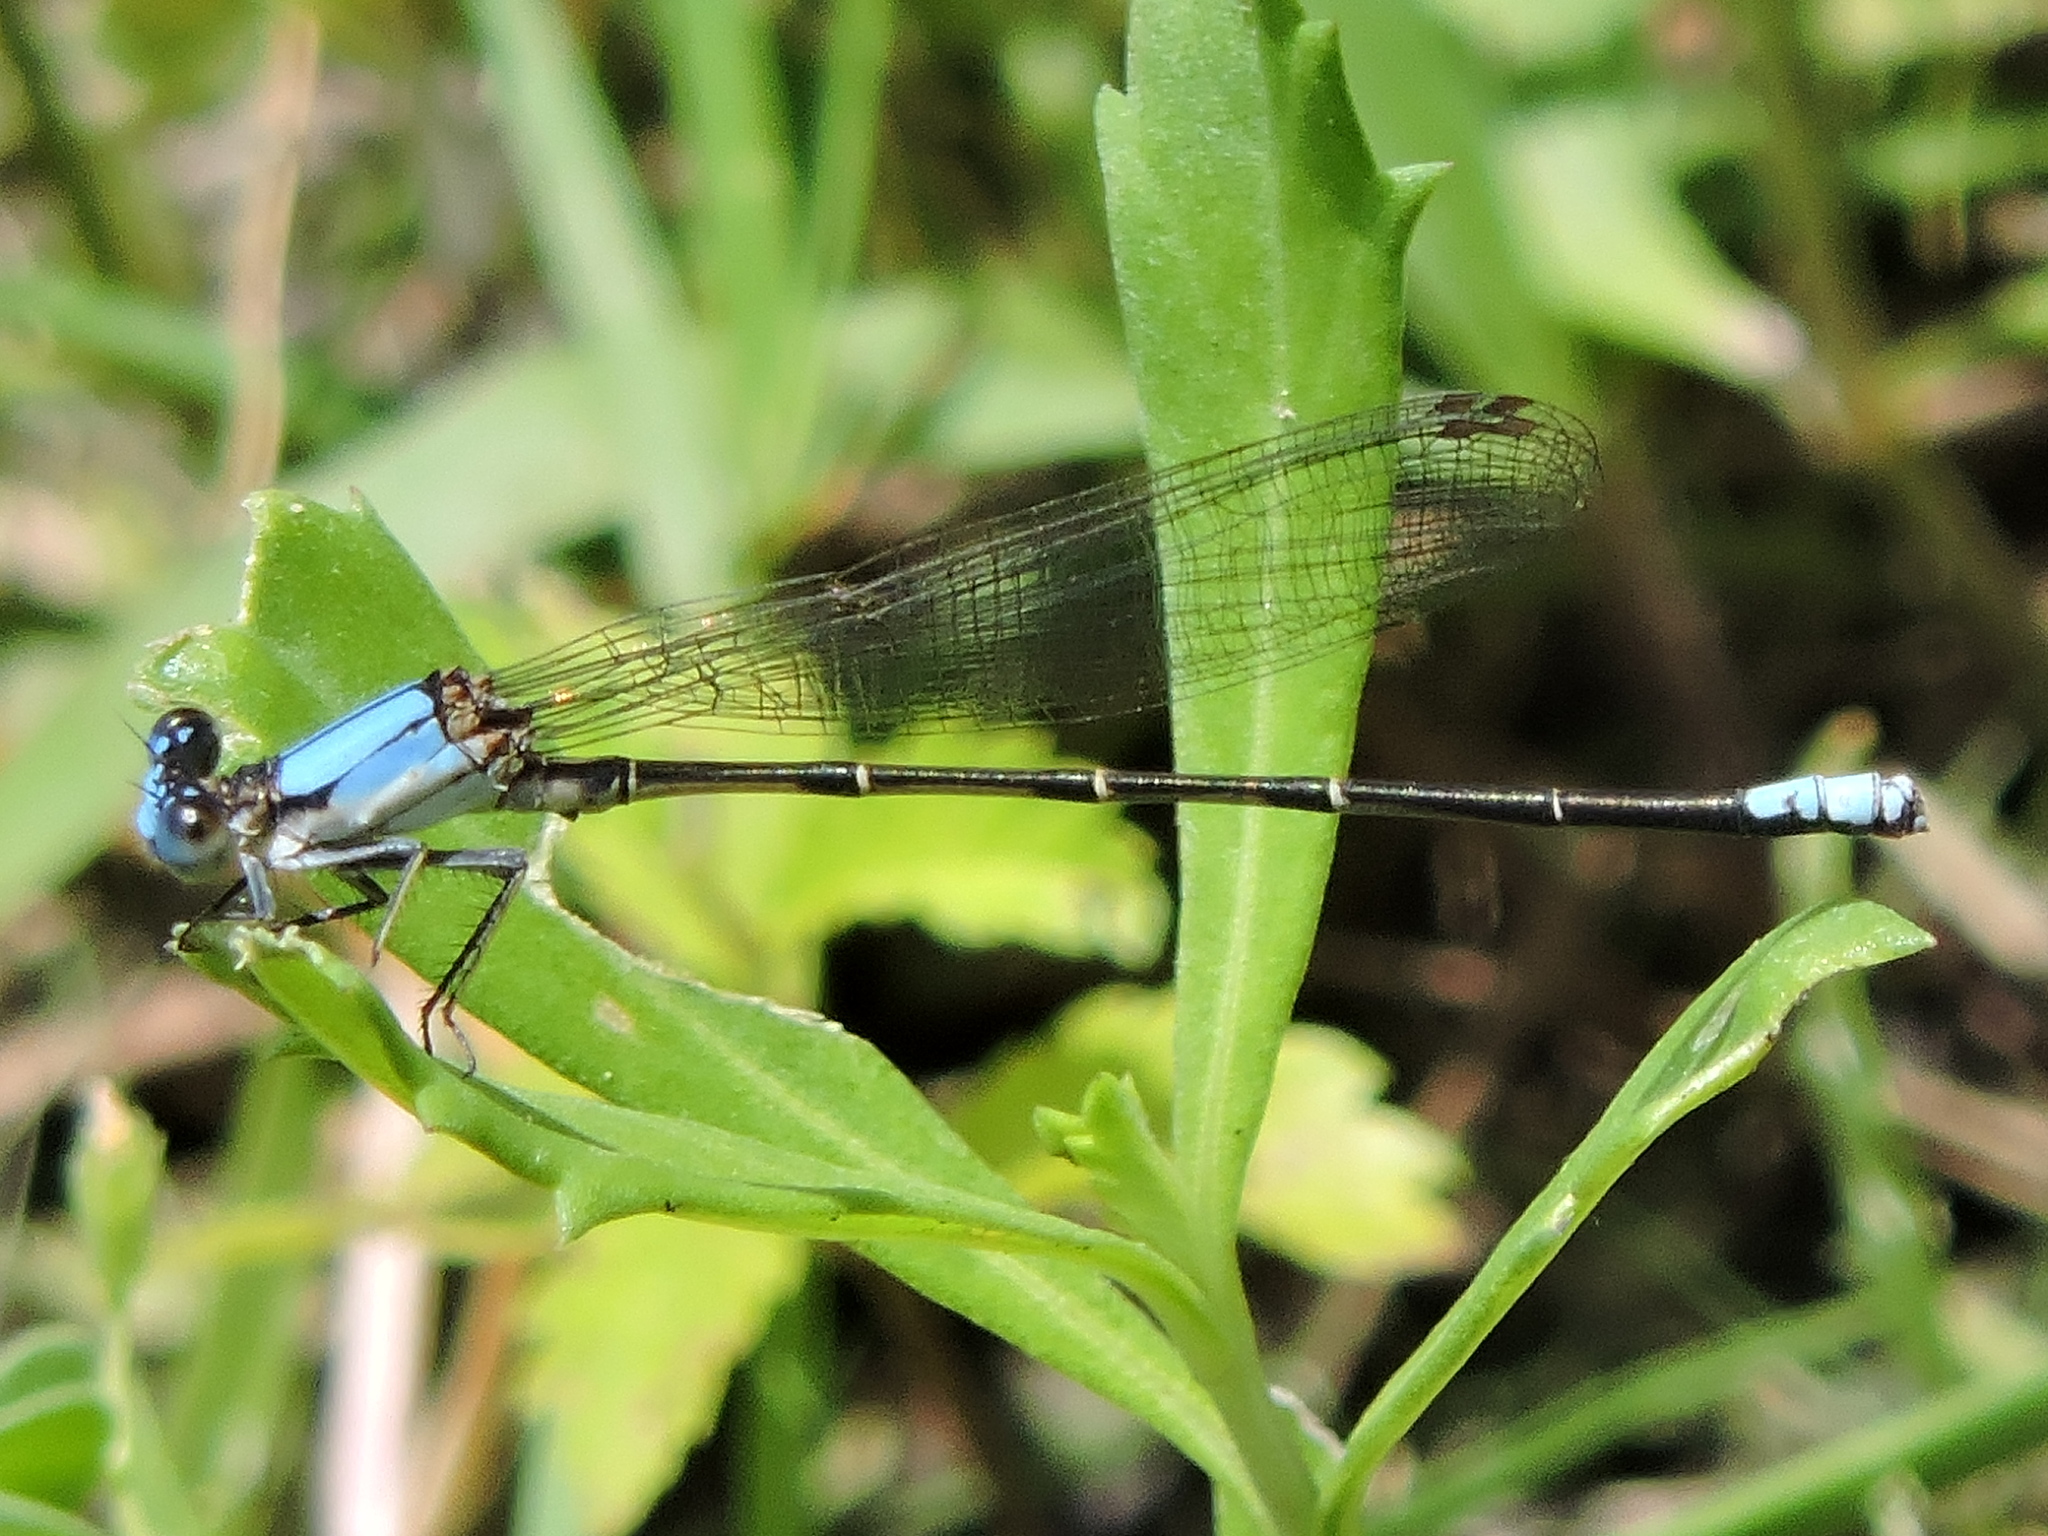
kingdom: Animalia
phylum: Arthropoda
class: Insecta
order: Odonata
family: Coenagrionidae
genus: Argia
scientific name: Argia apicalis
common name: Blue-fronted dancer
